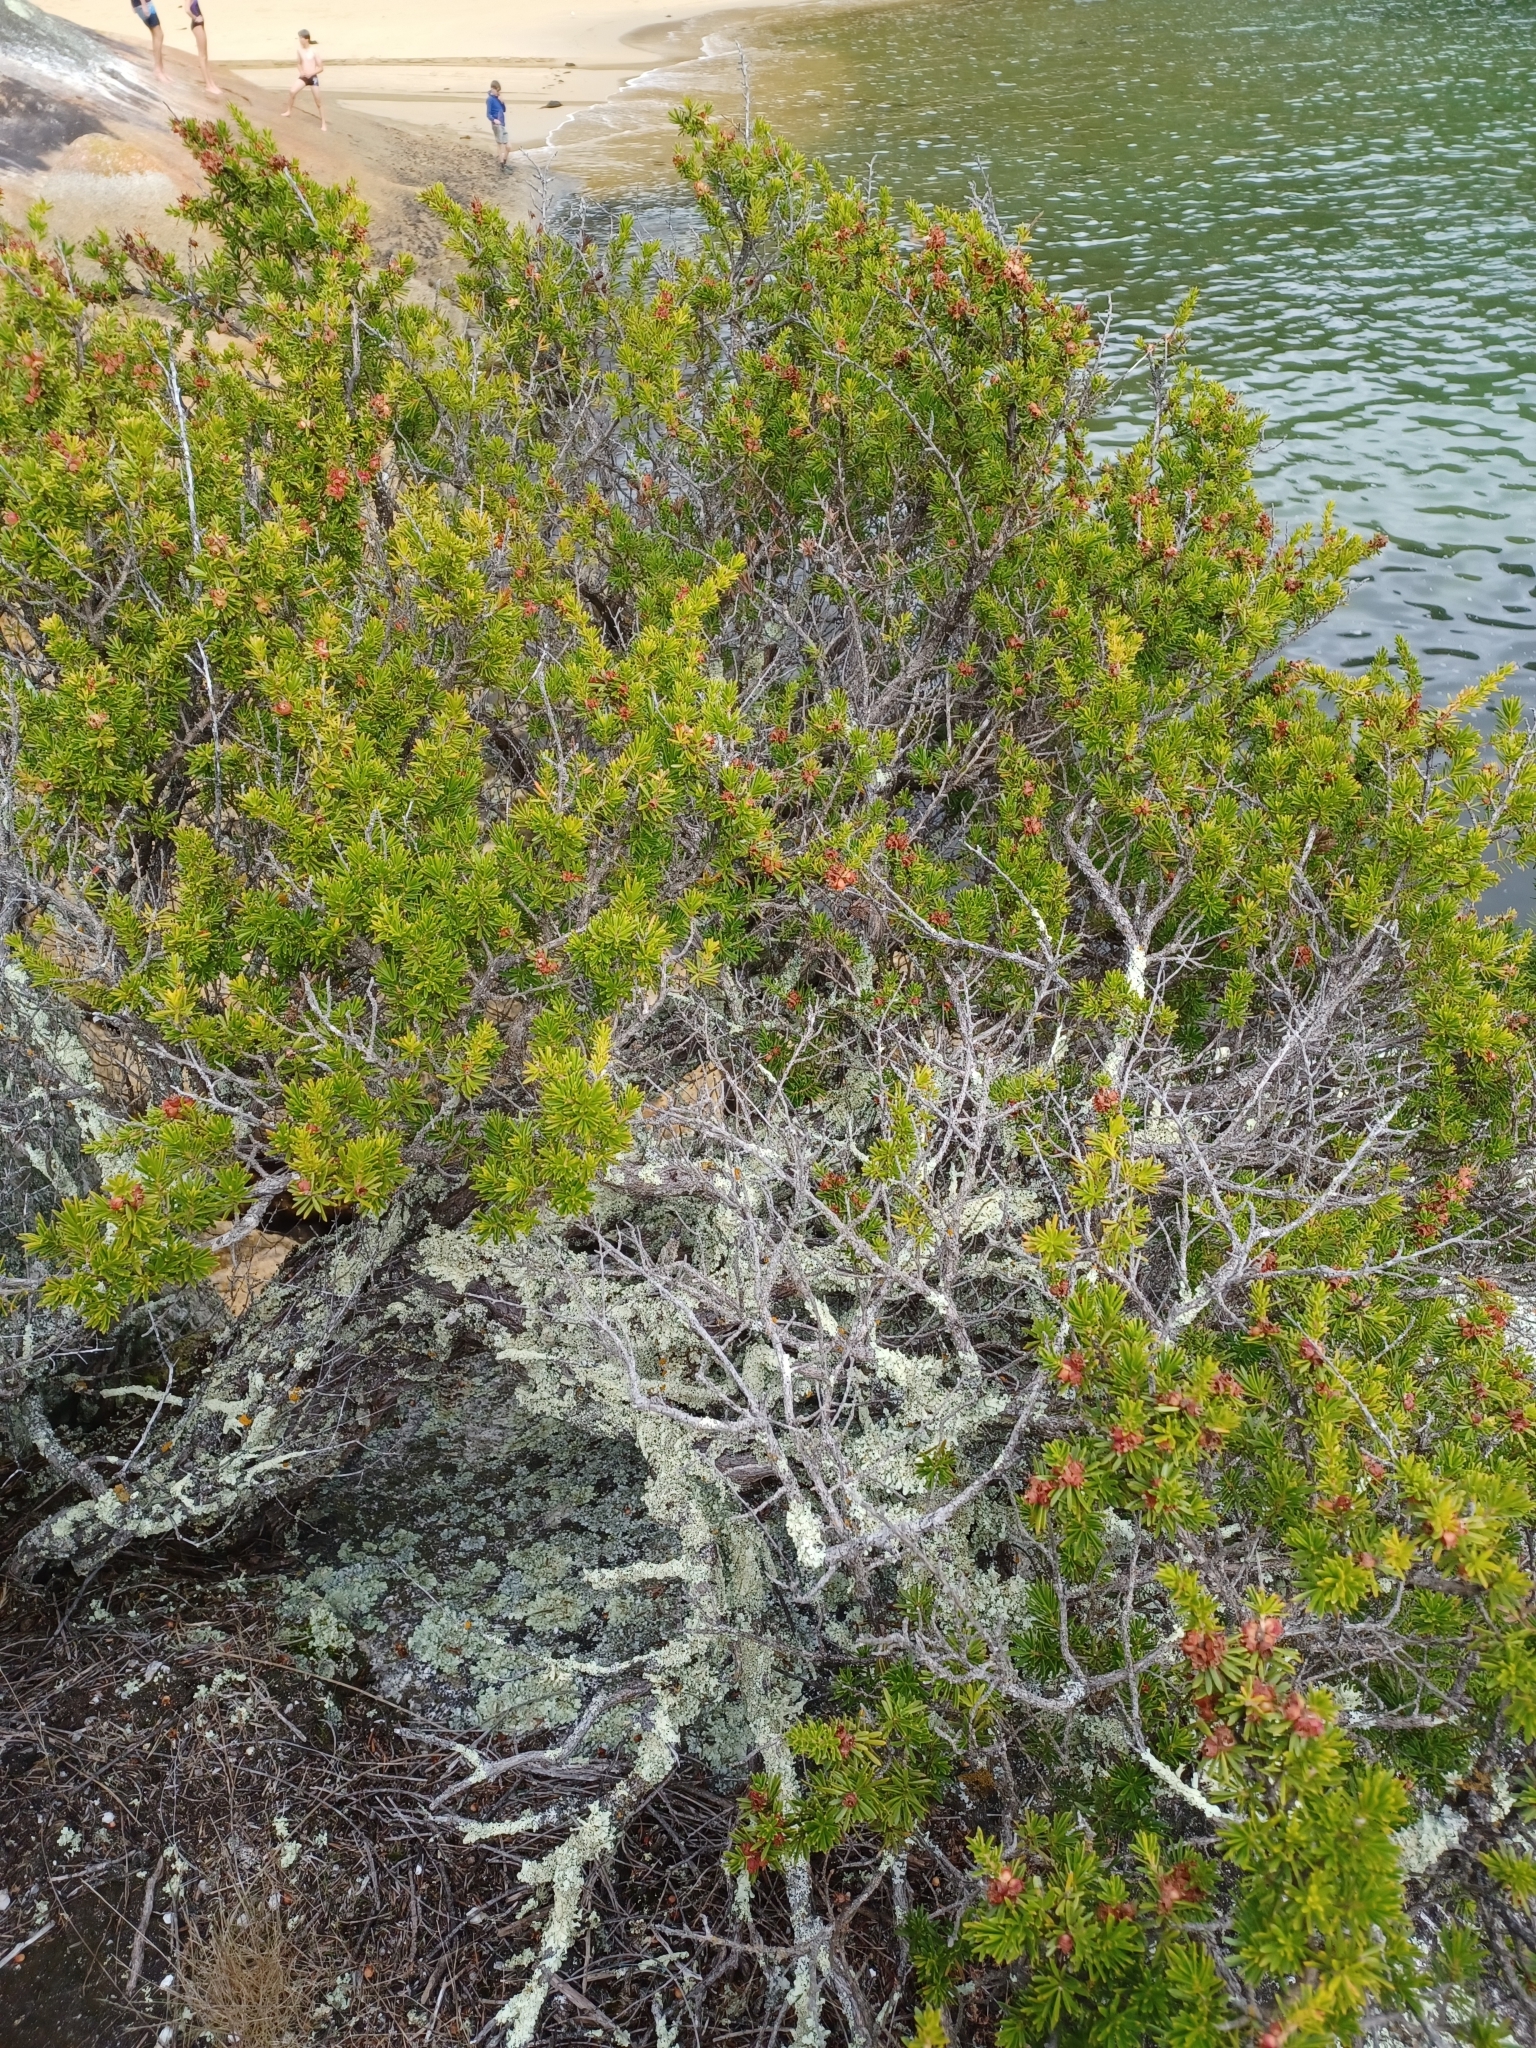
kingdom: Plantae
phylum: Tracheophyta
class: Magnoliopsida
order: Myrtales
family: Myrtaceae
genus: Kunzea
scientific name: Kunzea ambigua
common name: Tickbush
